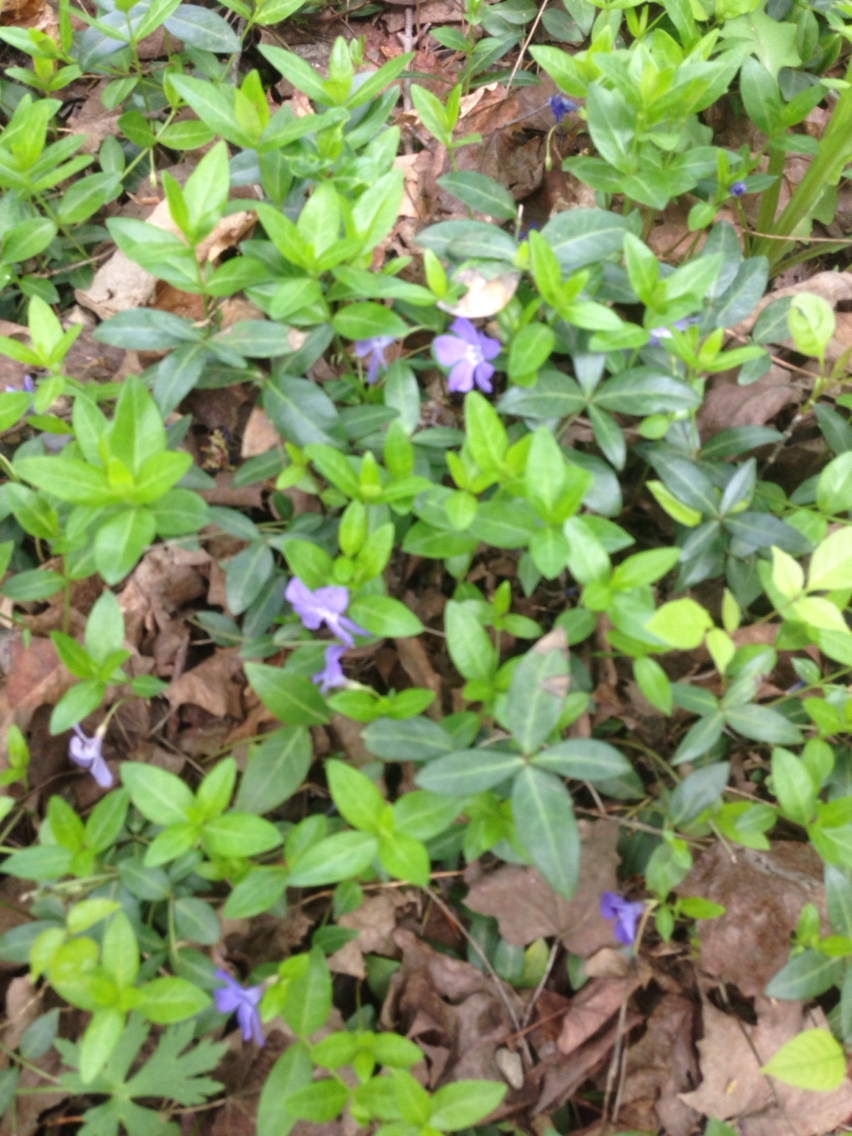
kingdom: Plantae
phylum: Tracheophyta
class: Magnoliopsida
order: Gentianales
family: Apocynaceae
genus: Vinca
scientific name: Vinca minor
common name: Lesser periwinkle
